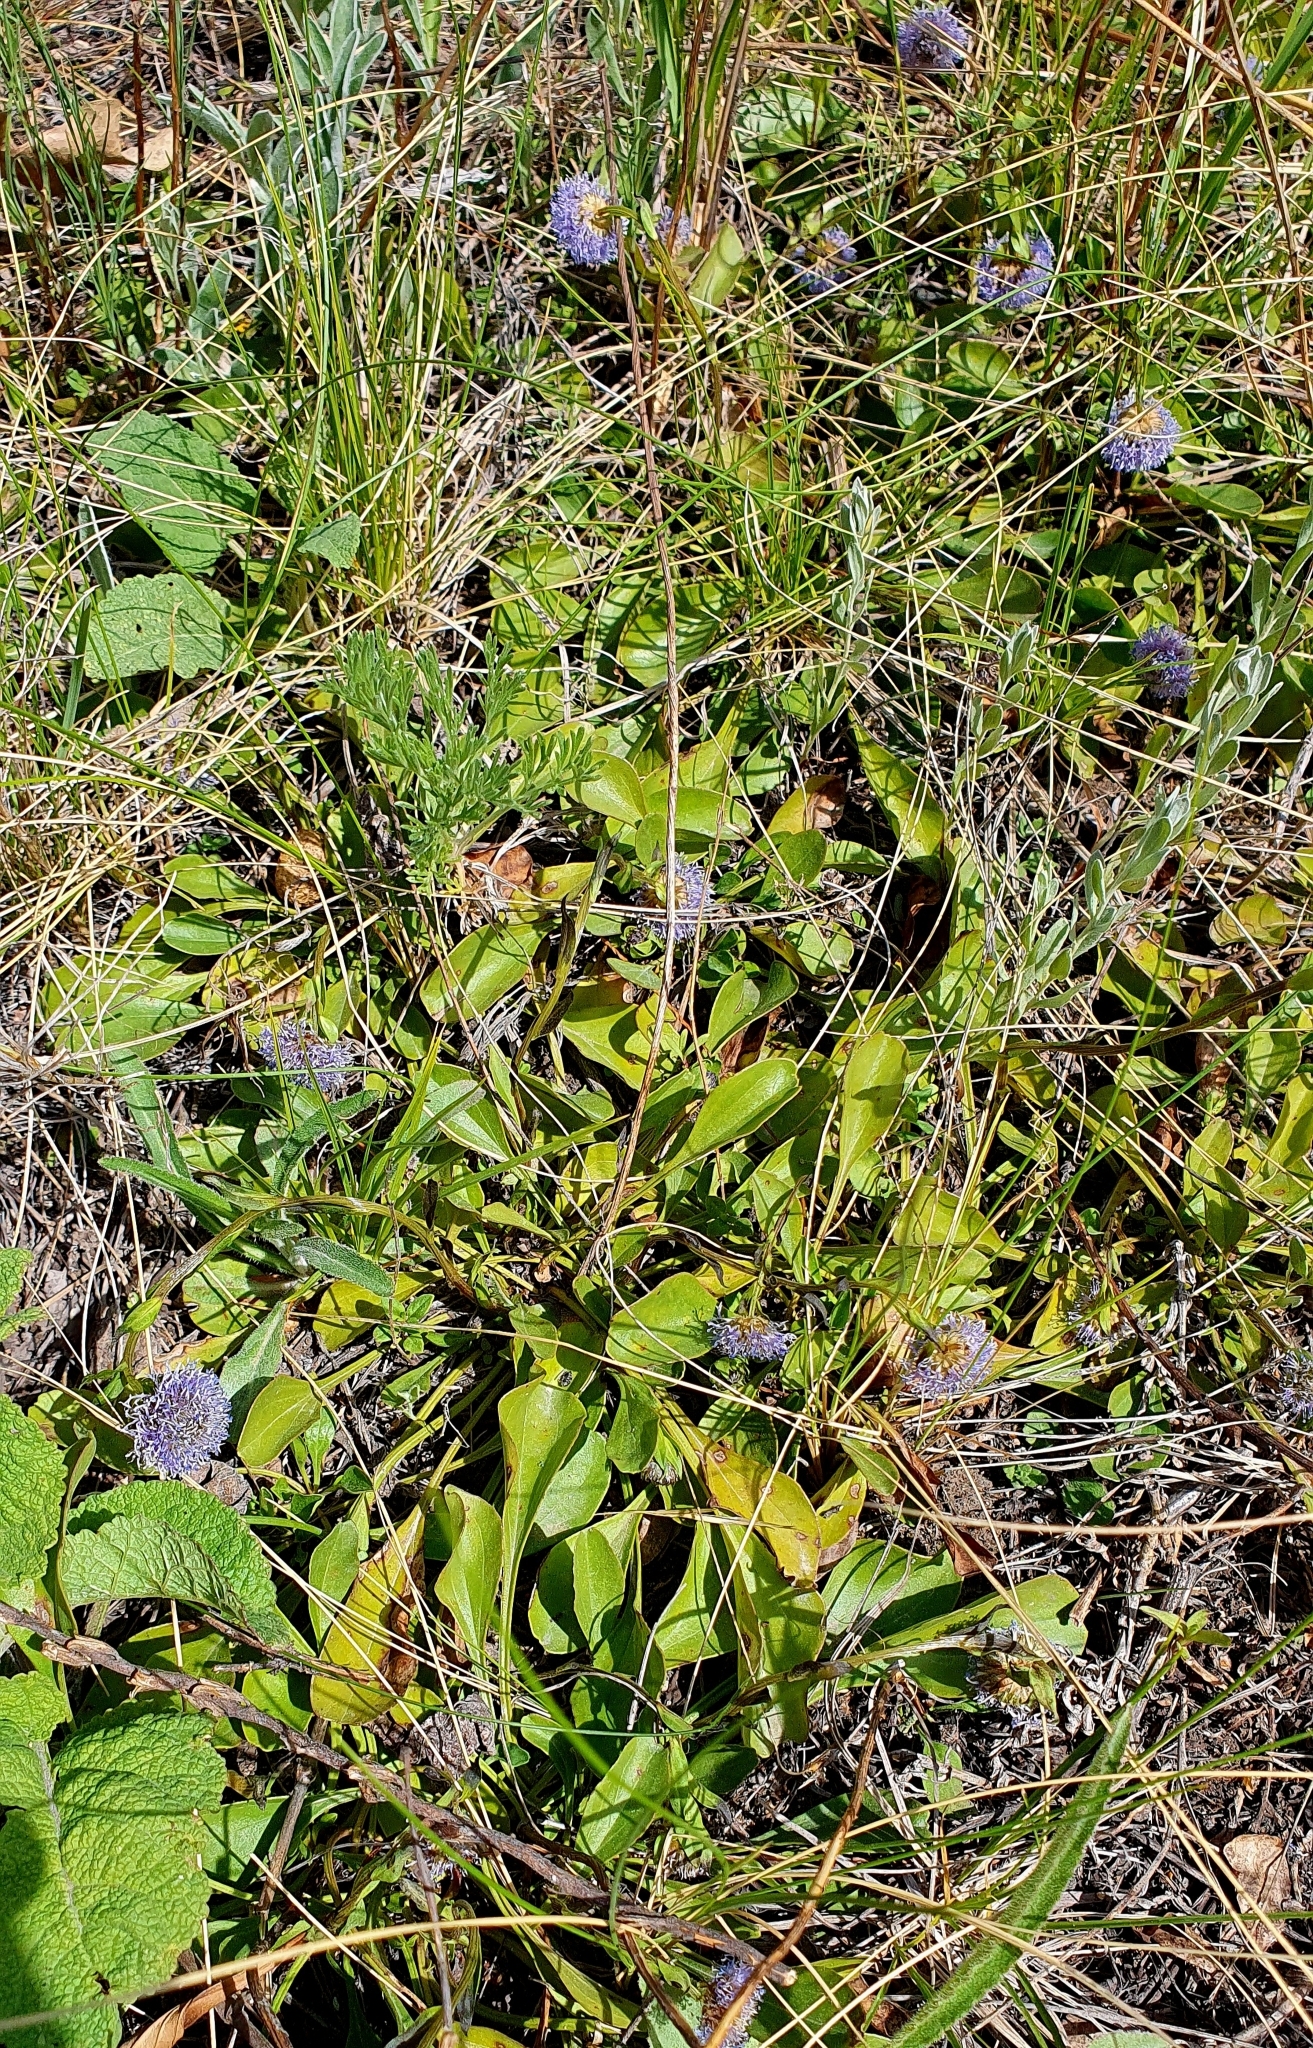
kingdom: Plantae
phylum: Tracheophyta
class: Magnoliopsida
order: Lamiales
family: Plantaginaceae
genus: Globularia
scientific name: Globularia bisnagarica
